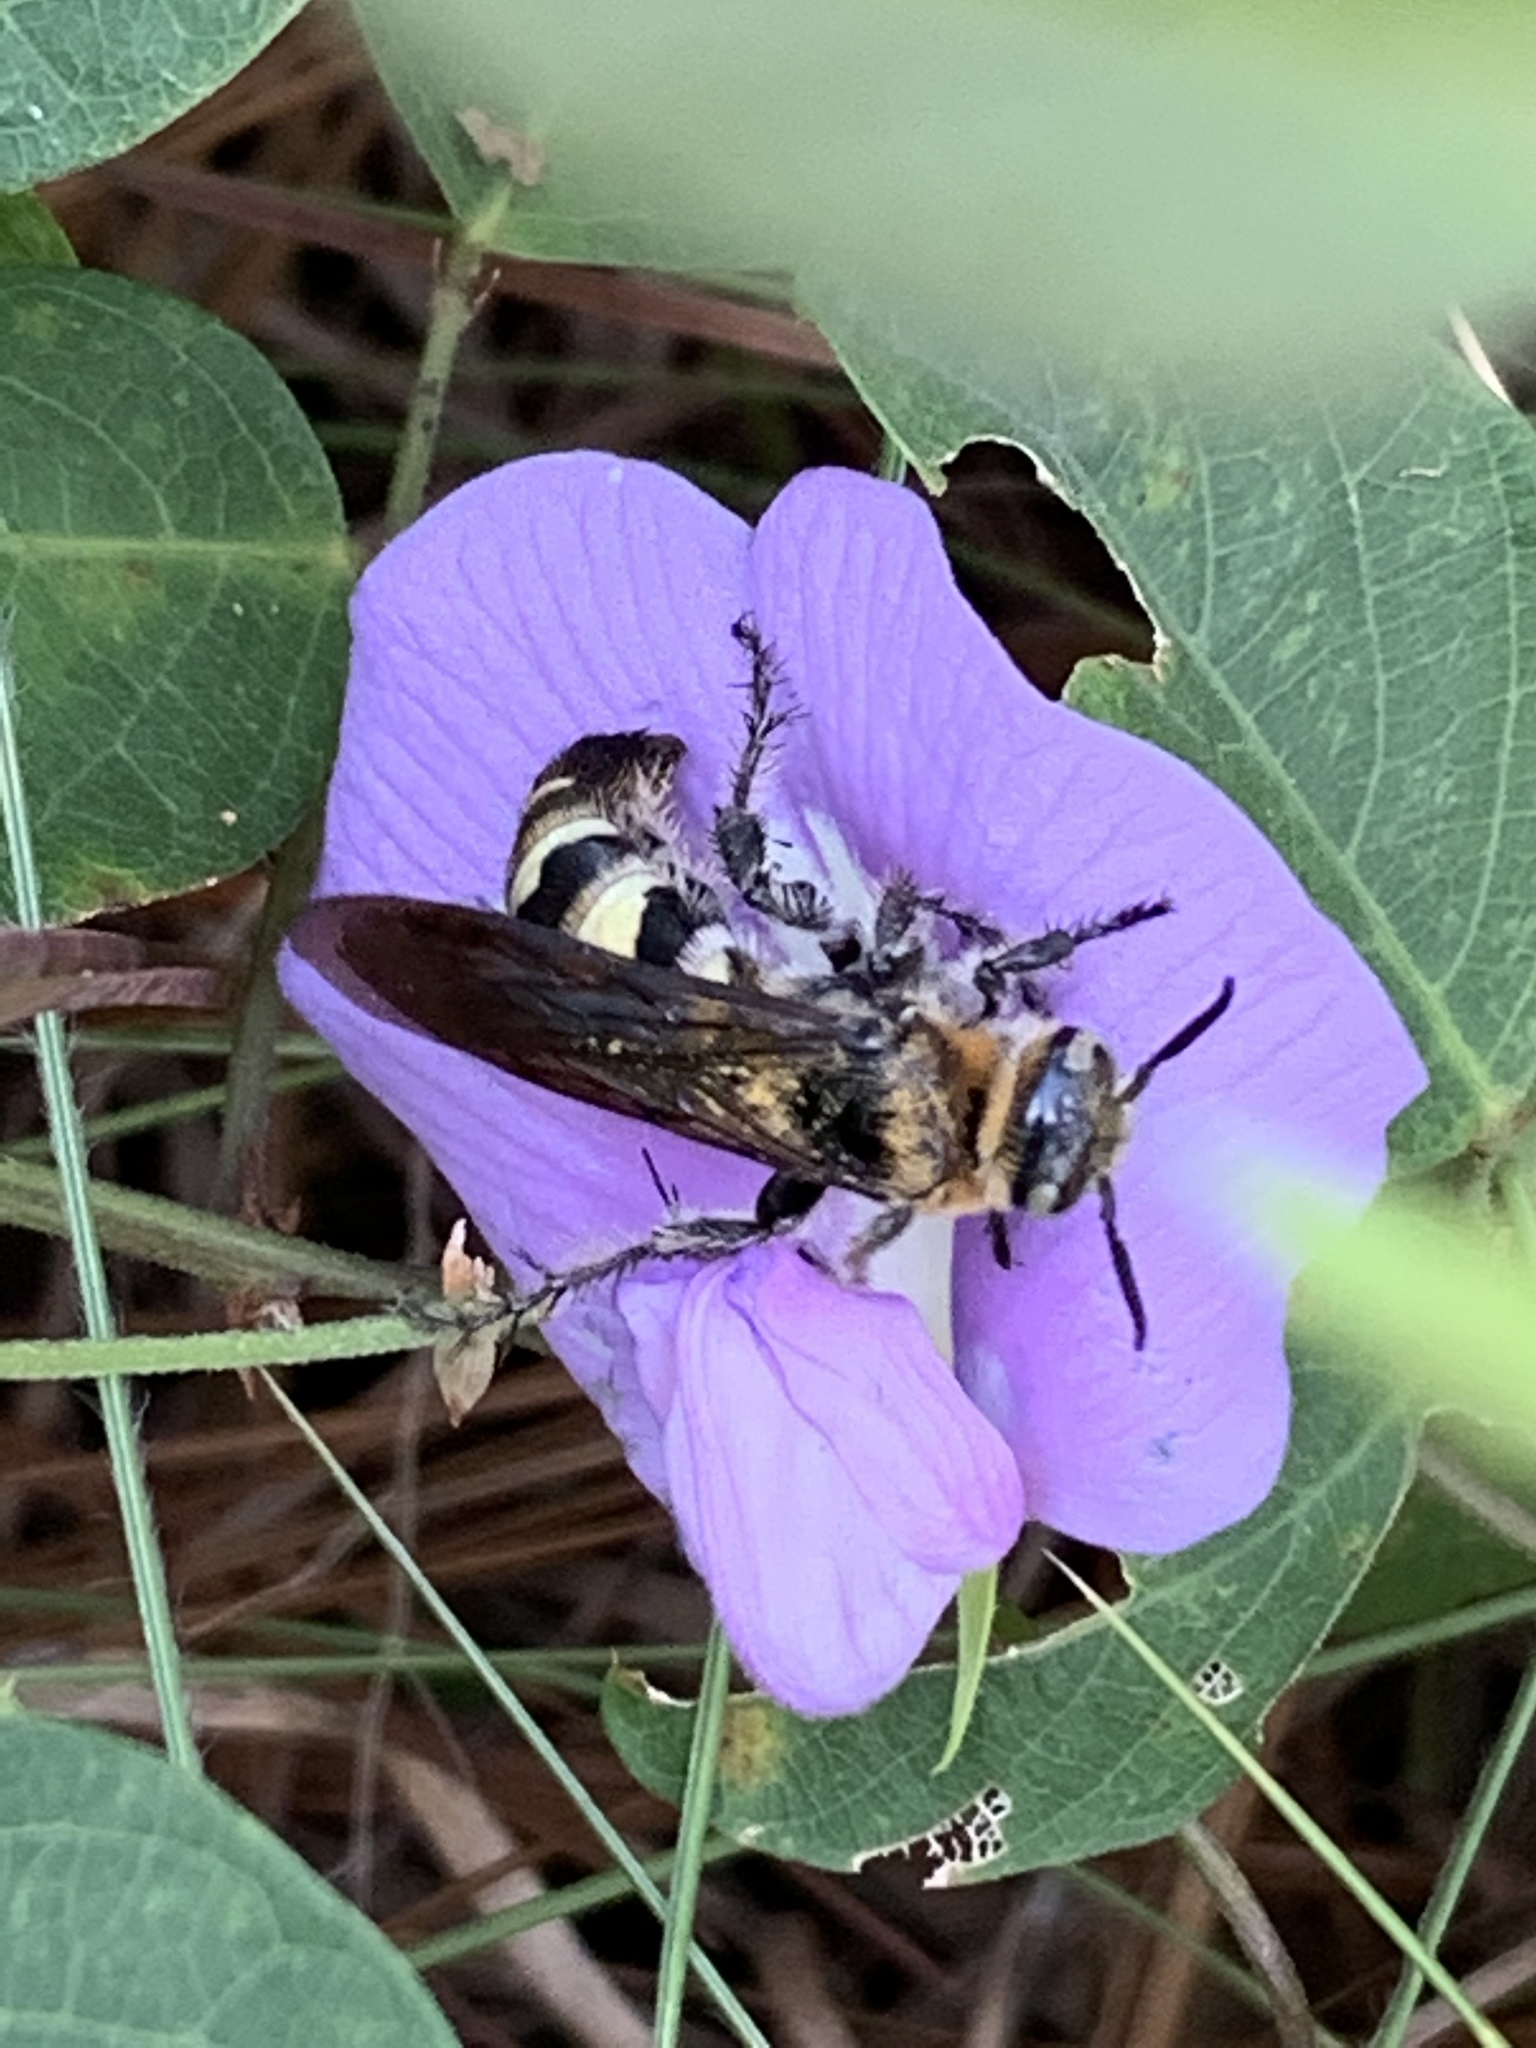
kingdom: Animalia
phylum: Arthropoda
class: Insecta
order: Hymenoptera
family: Scoliidae
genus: Dielis
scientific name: Dielis
